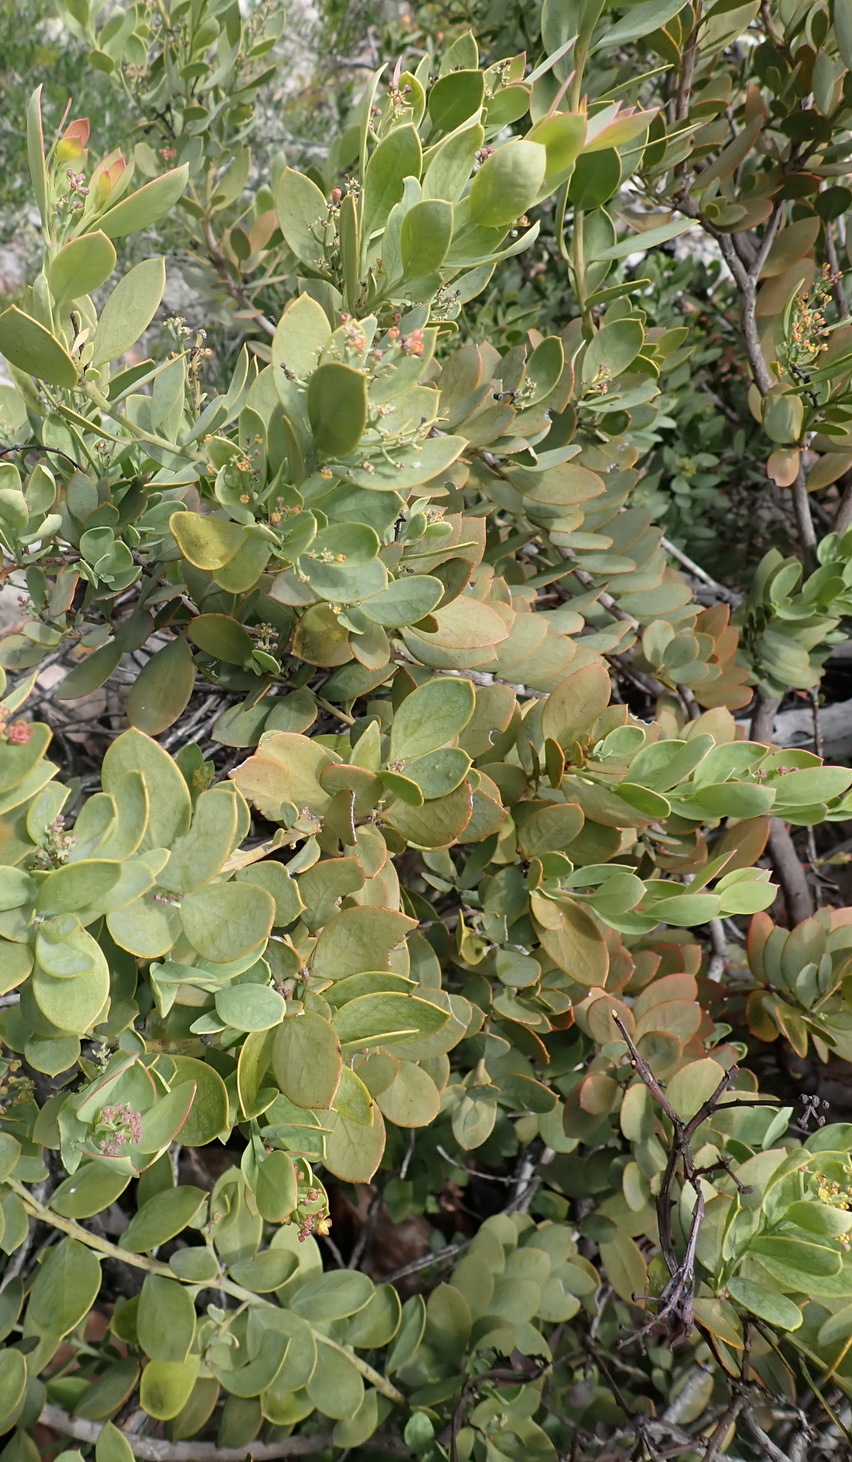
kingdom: Plantae
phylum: Tracheophyta
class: Magnoliopsida
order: Santalales
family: Santalaceae
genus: Osyris
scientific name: Osyris compressa
